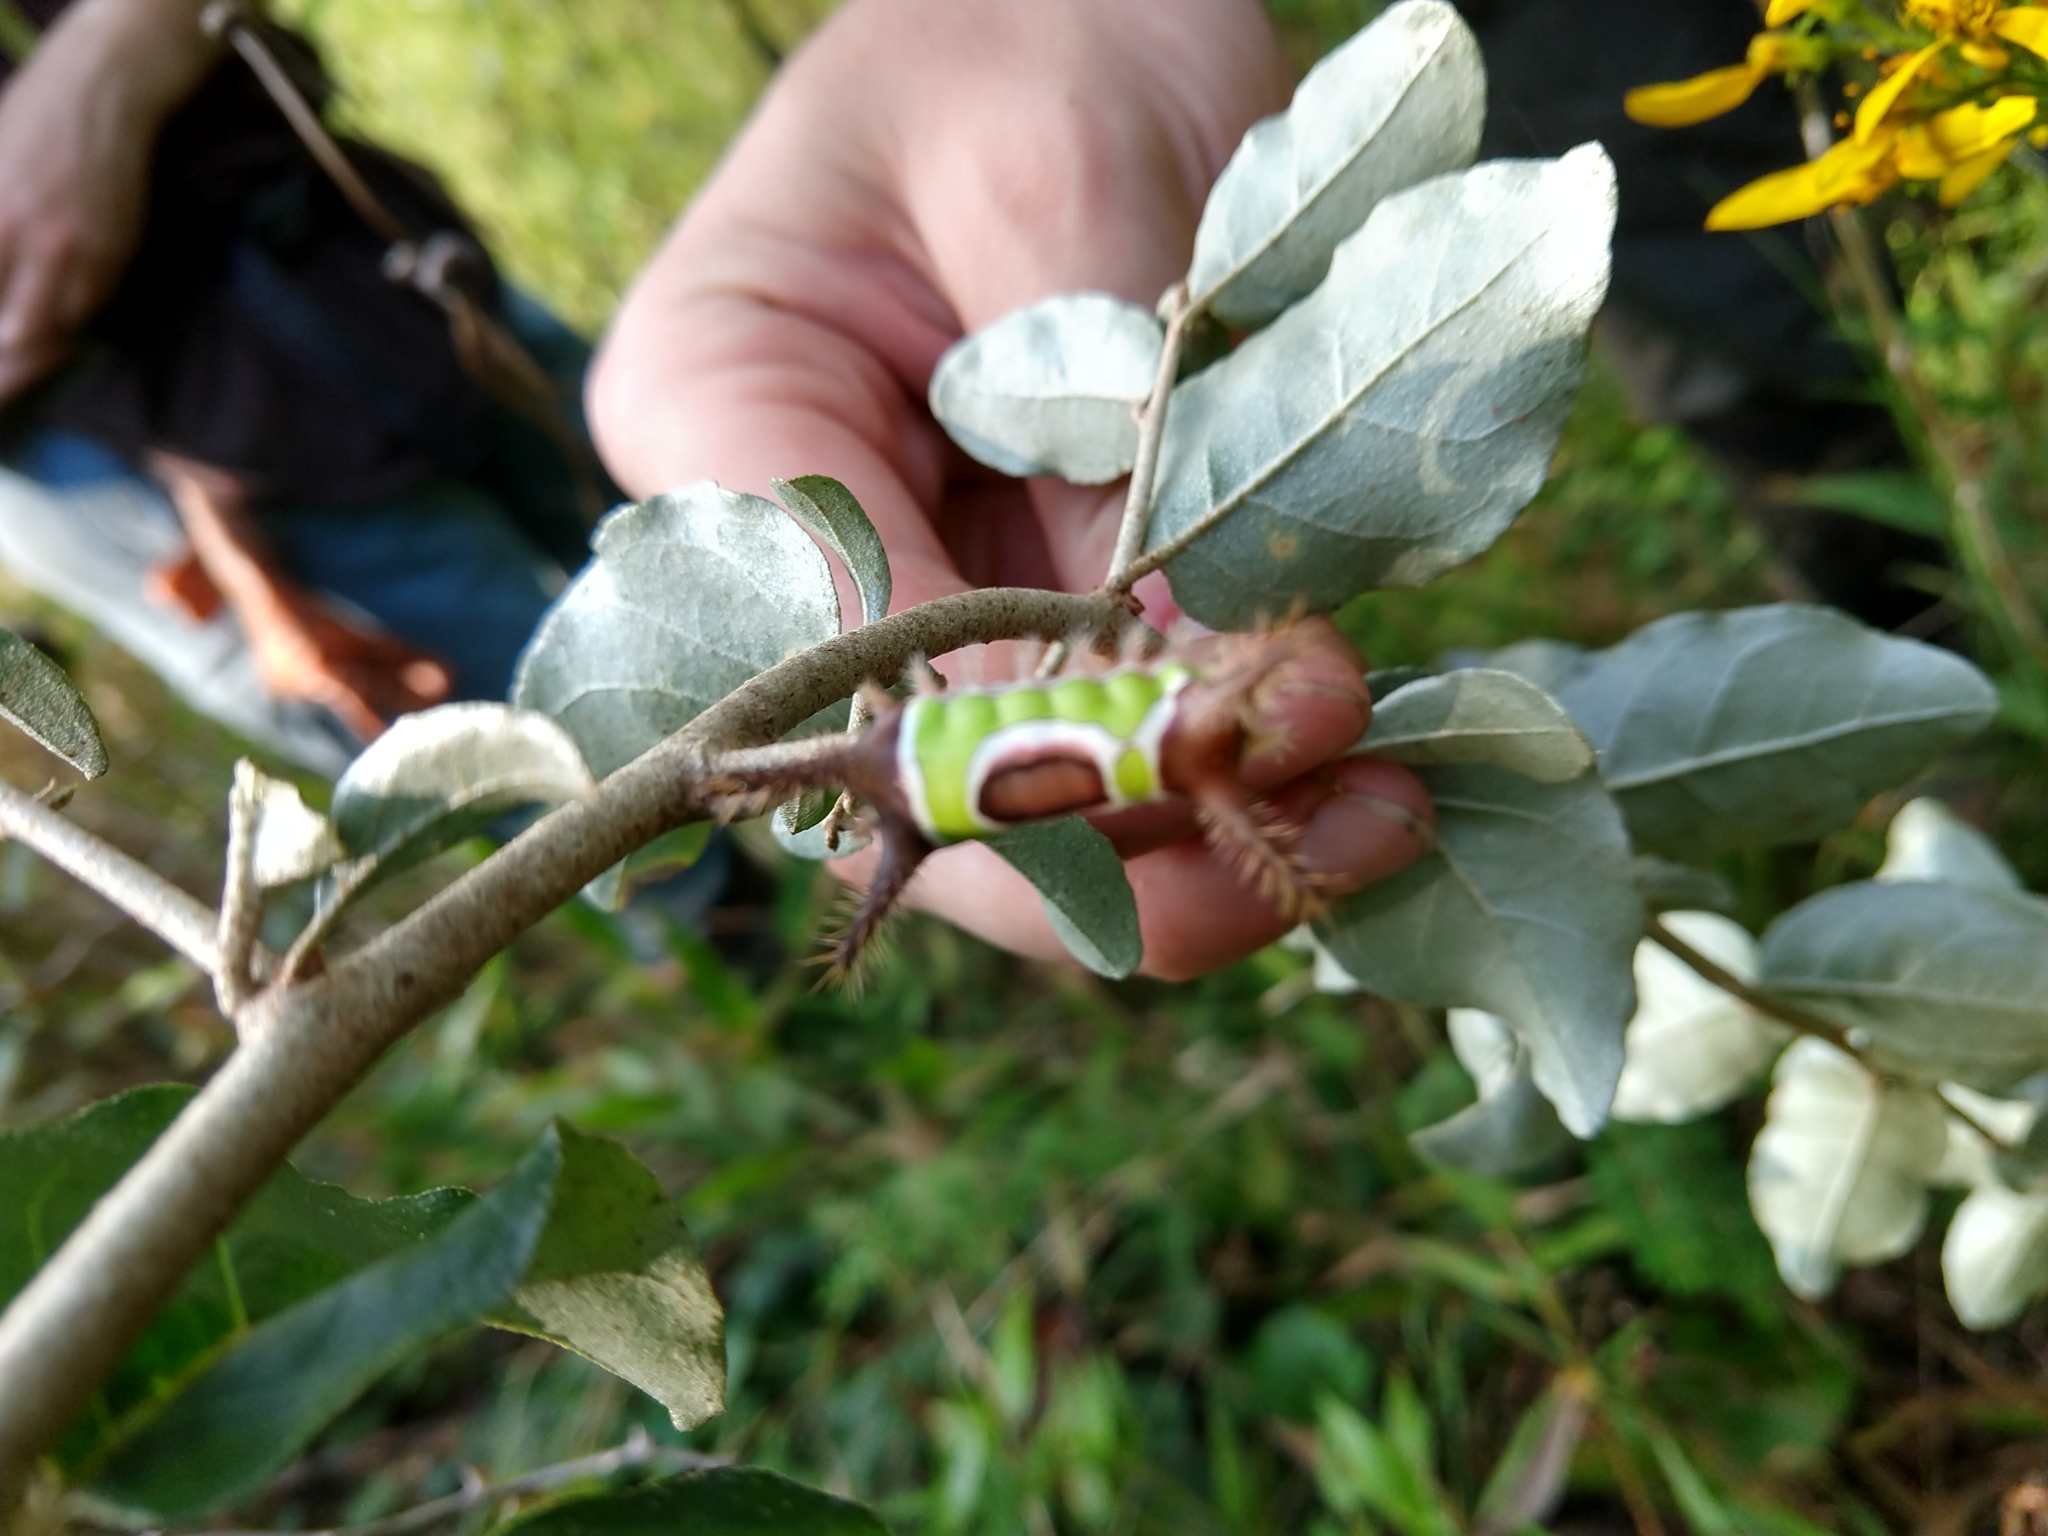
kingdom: Animalia
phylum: Arthropoda
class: Insecta
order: Lepidoptera
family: Limacodidae
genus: Acharia
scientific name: Acharia stimulea
